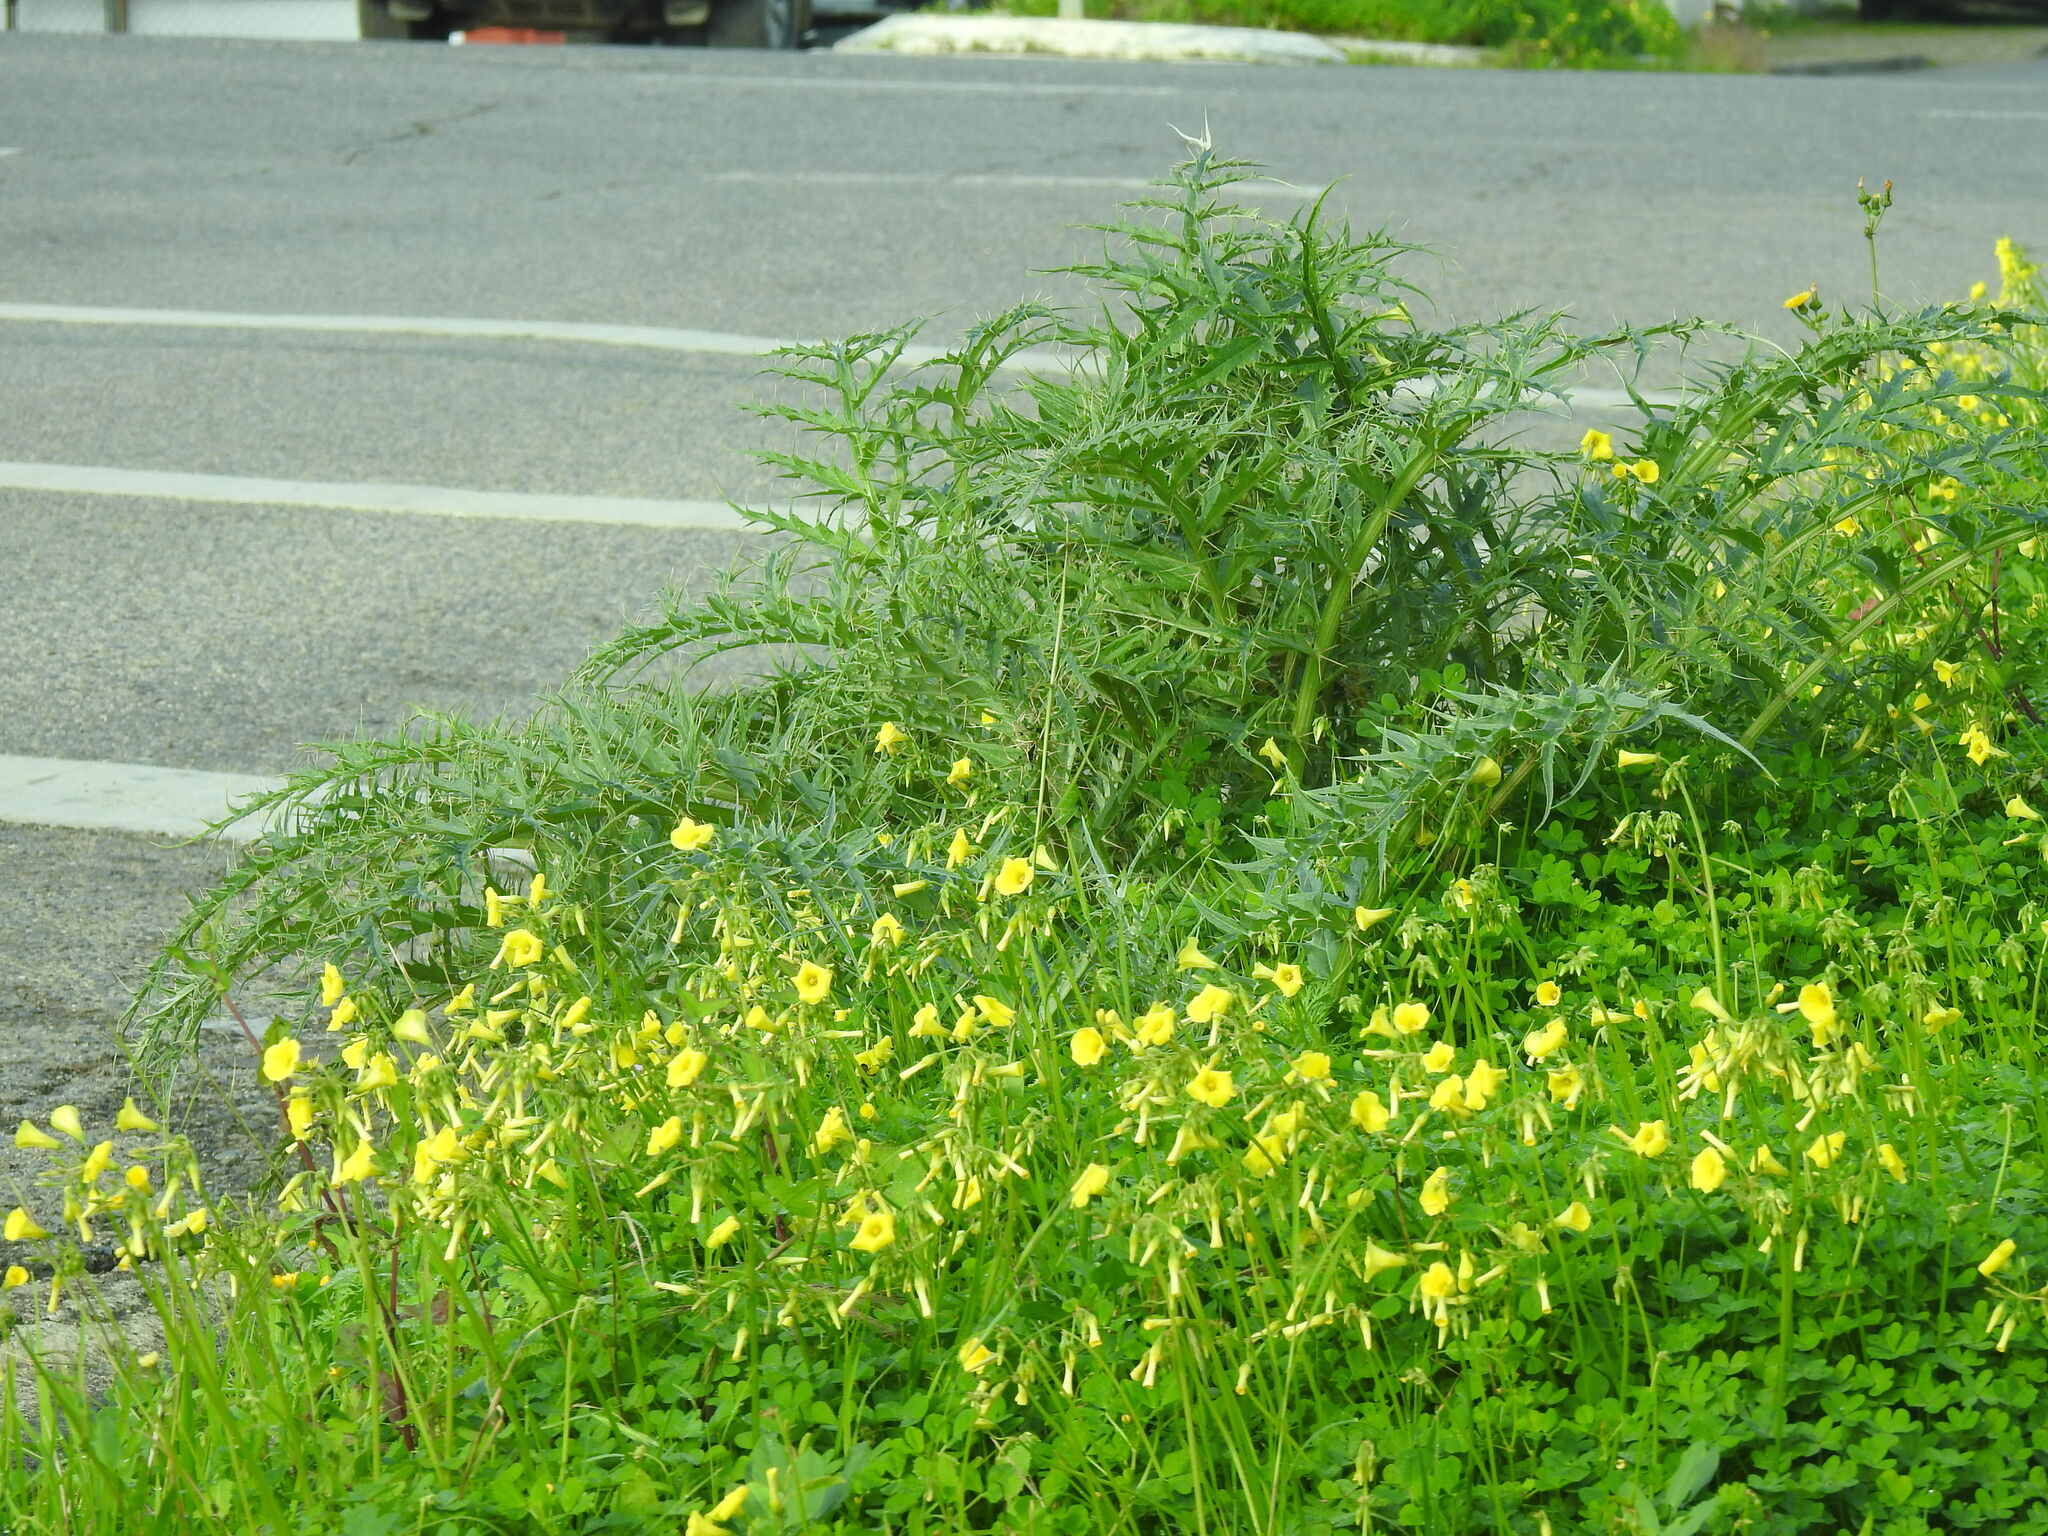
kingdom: Plantae
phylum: Tracheophyta
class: Magnoliopsida
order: Asterales
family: Asteraceae
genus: Cynara
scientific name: Cynara cardunculus
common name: Globe artichoke
